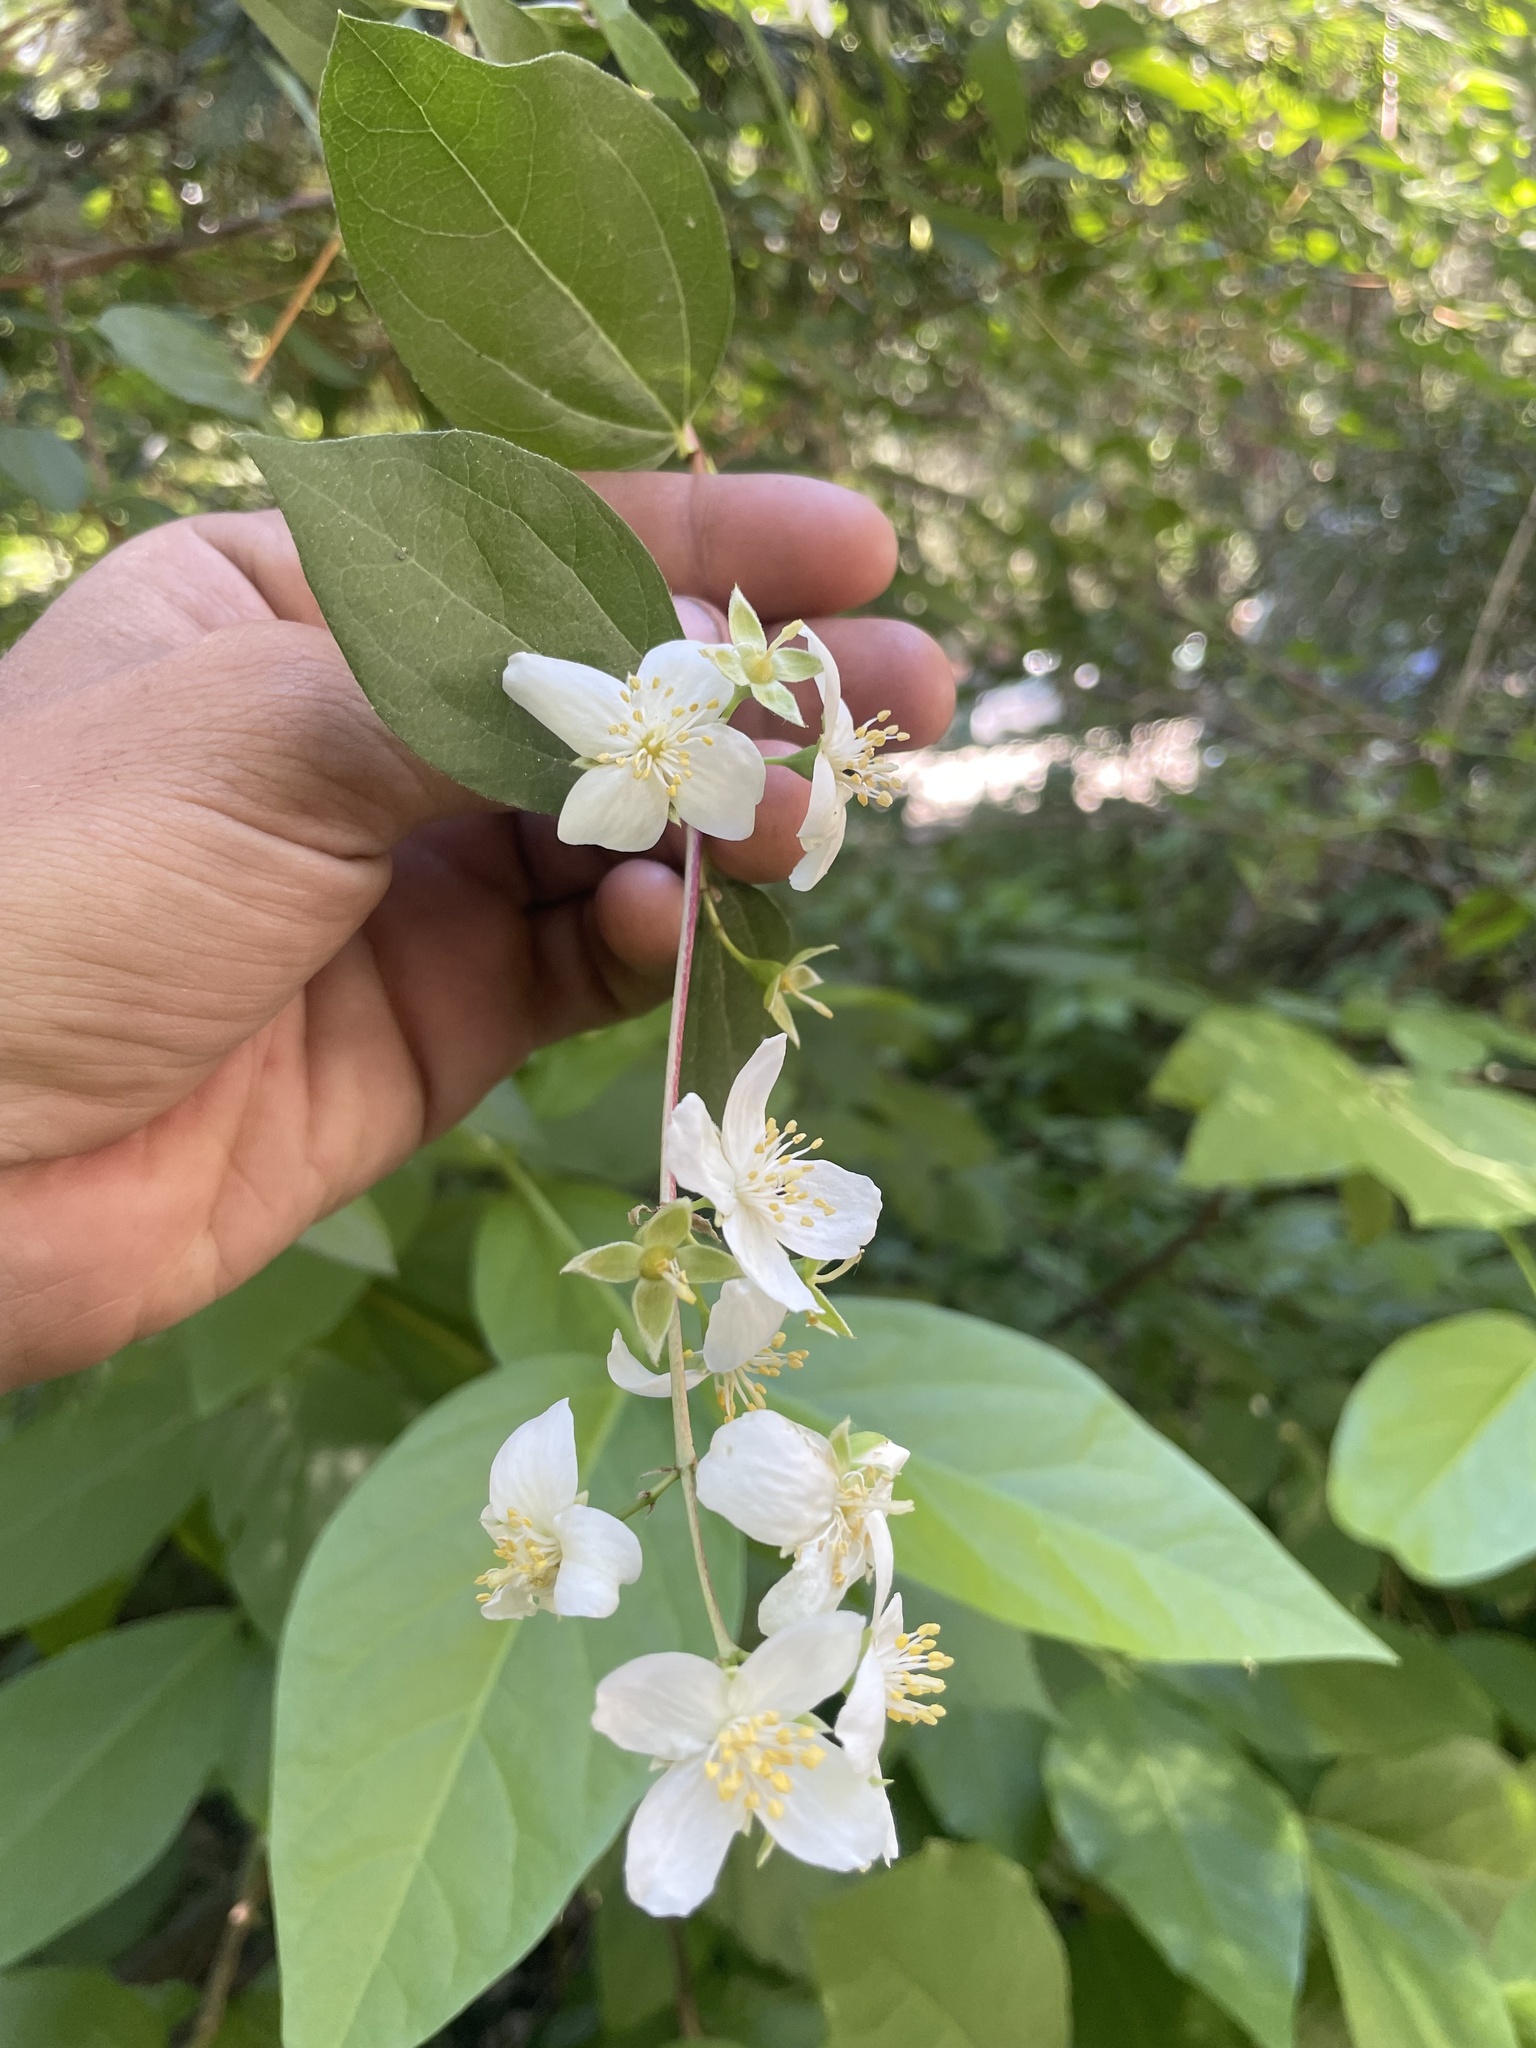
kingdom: Plantae
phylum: Tracheophyta
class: Magnoliopsida
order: Cornales
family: Hydrangeaceae
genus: Philadelphus
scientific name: Philadelphus lewisii
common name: Lewis's mock orange
